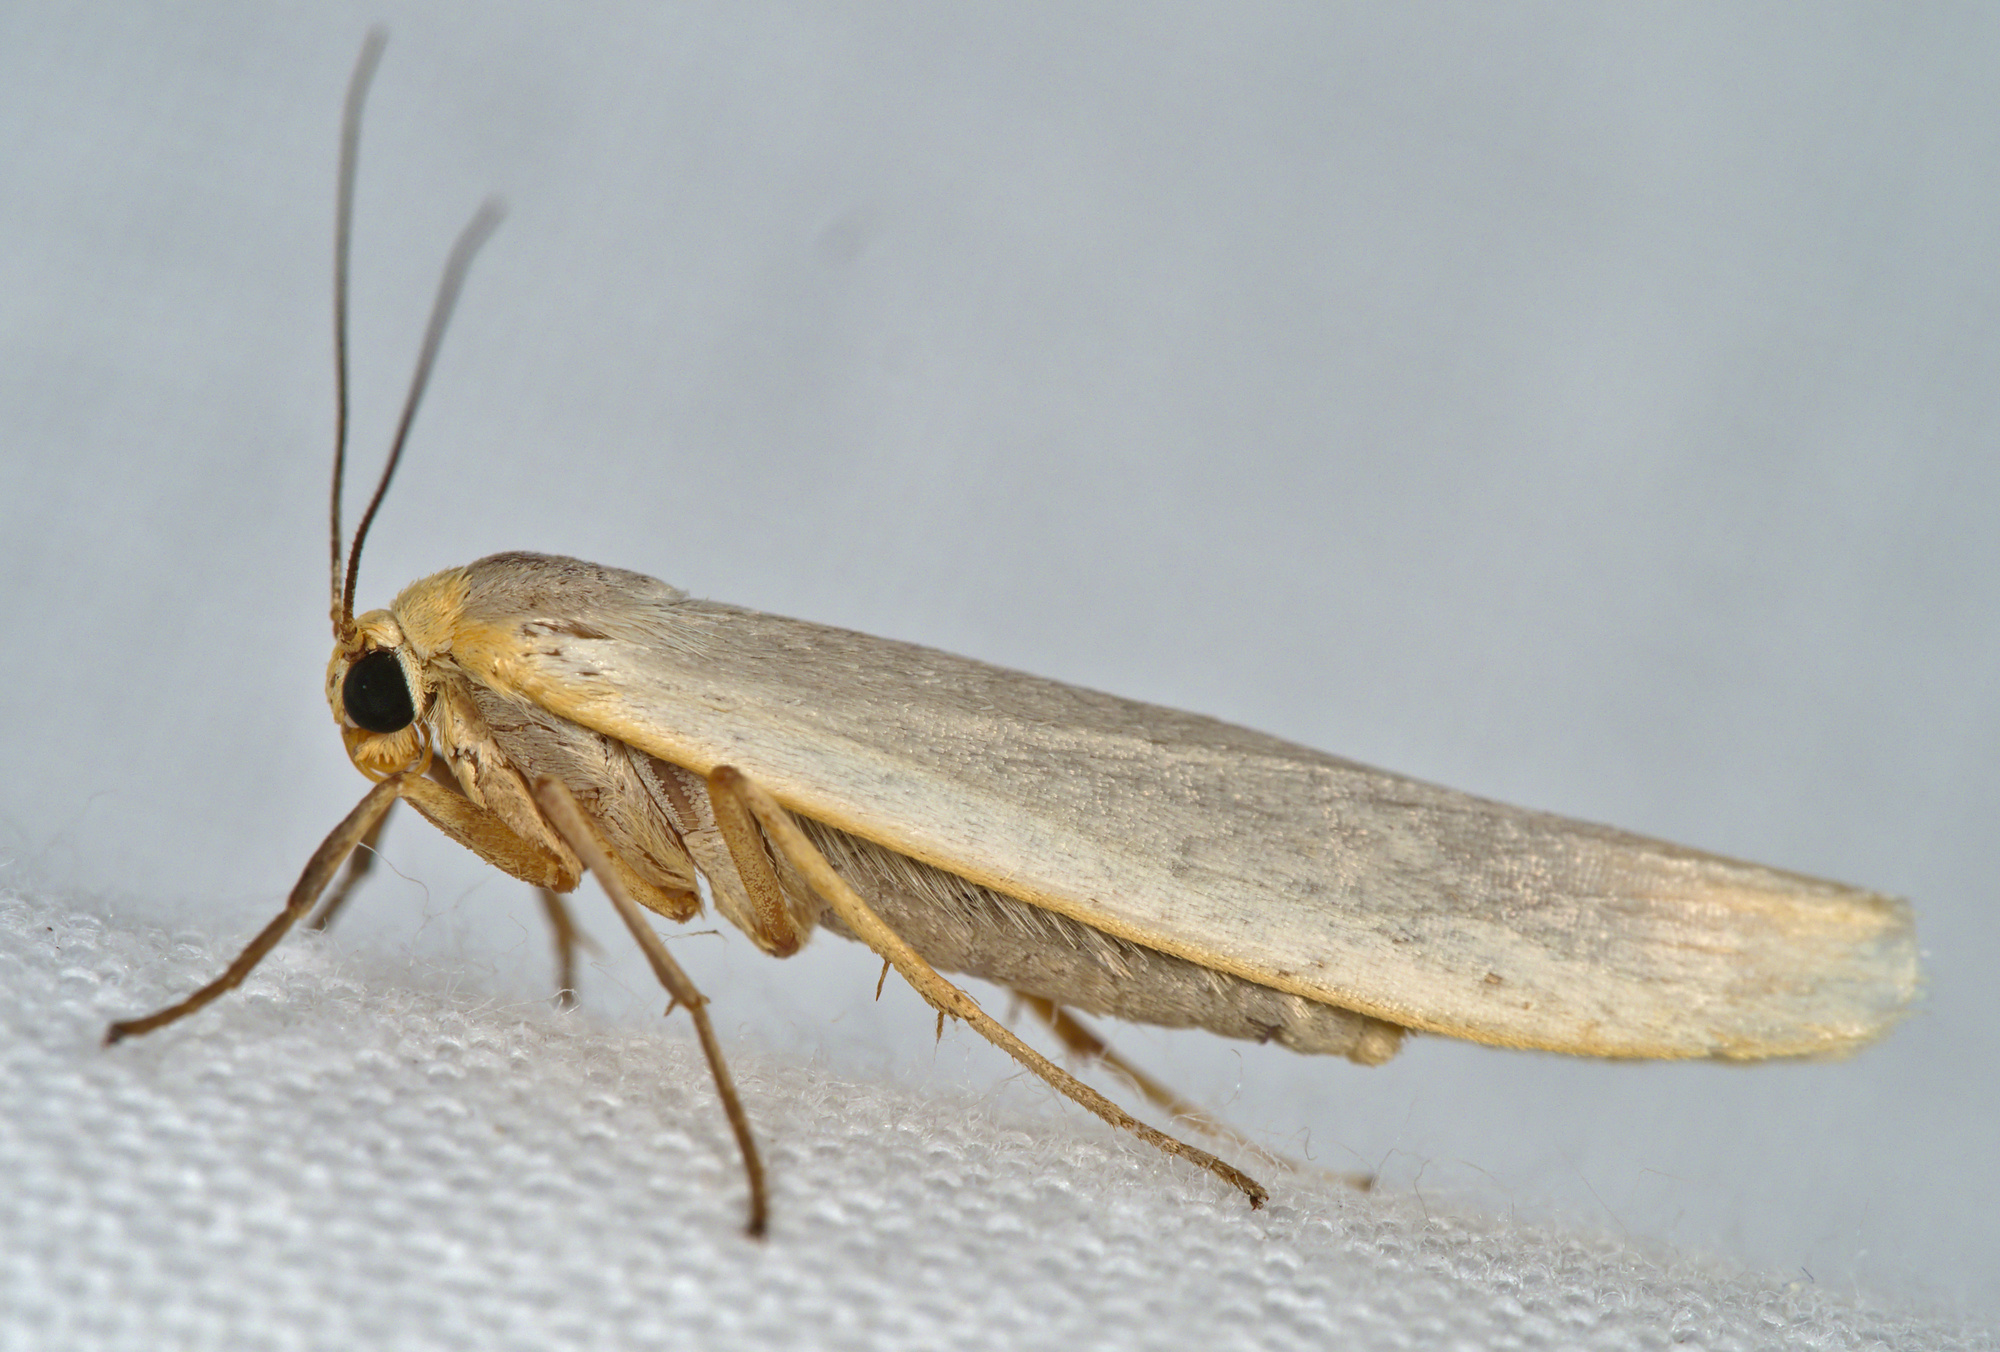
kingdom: Animalia
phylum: Arthropoda
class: Insecta
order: Lepidoptera
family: Erebidae
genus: Eilema
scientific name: Eilema caniola
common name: Hoary footman
